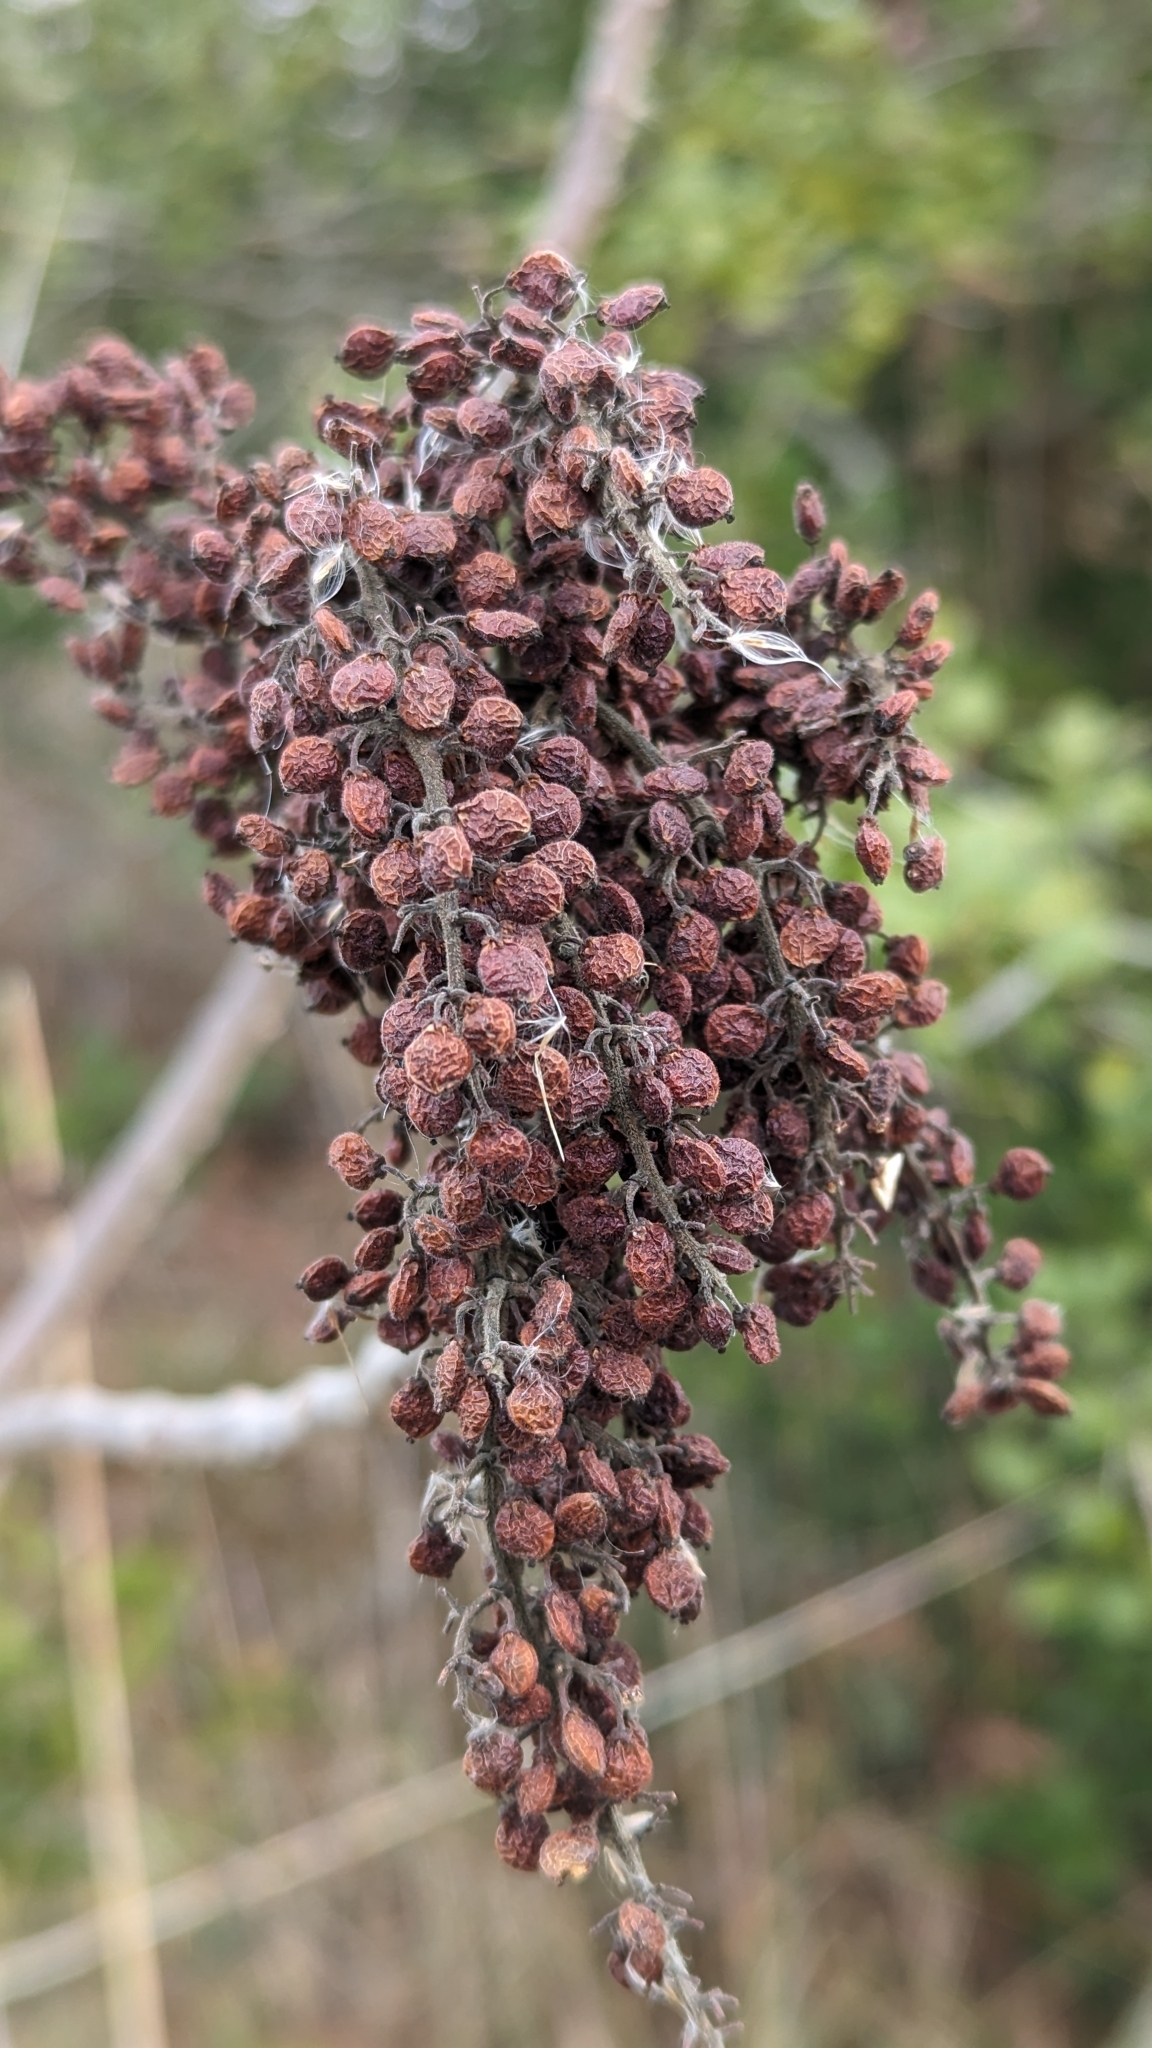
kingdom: Plantae
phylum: Tracheophyta
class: Magnoliopsida
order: Sapindales
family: Anacardiaceae
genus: Rhus
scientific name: Rhus copallina
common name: Shining sumac
